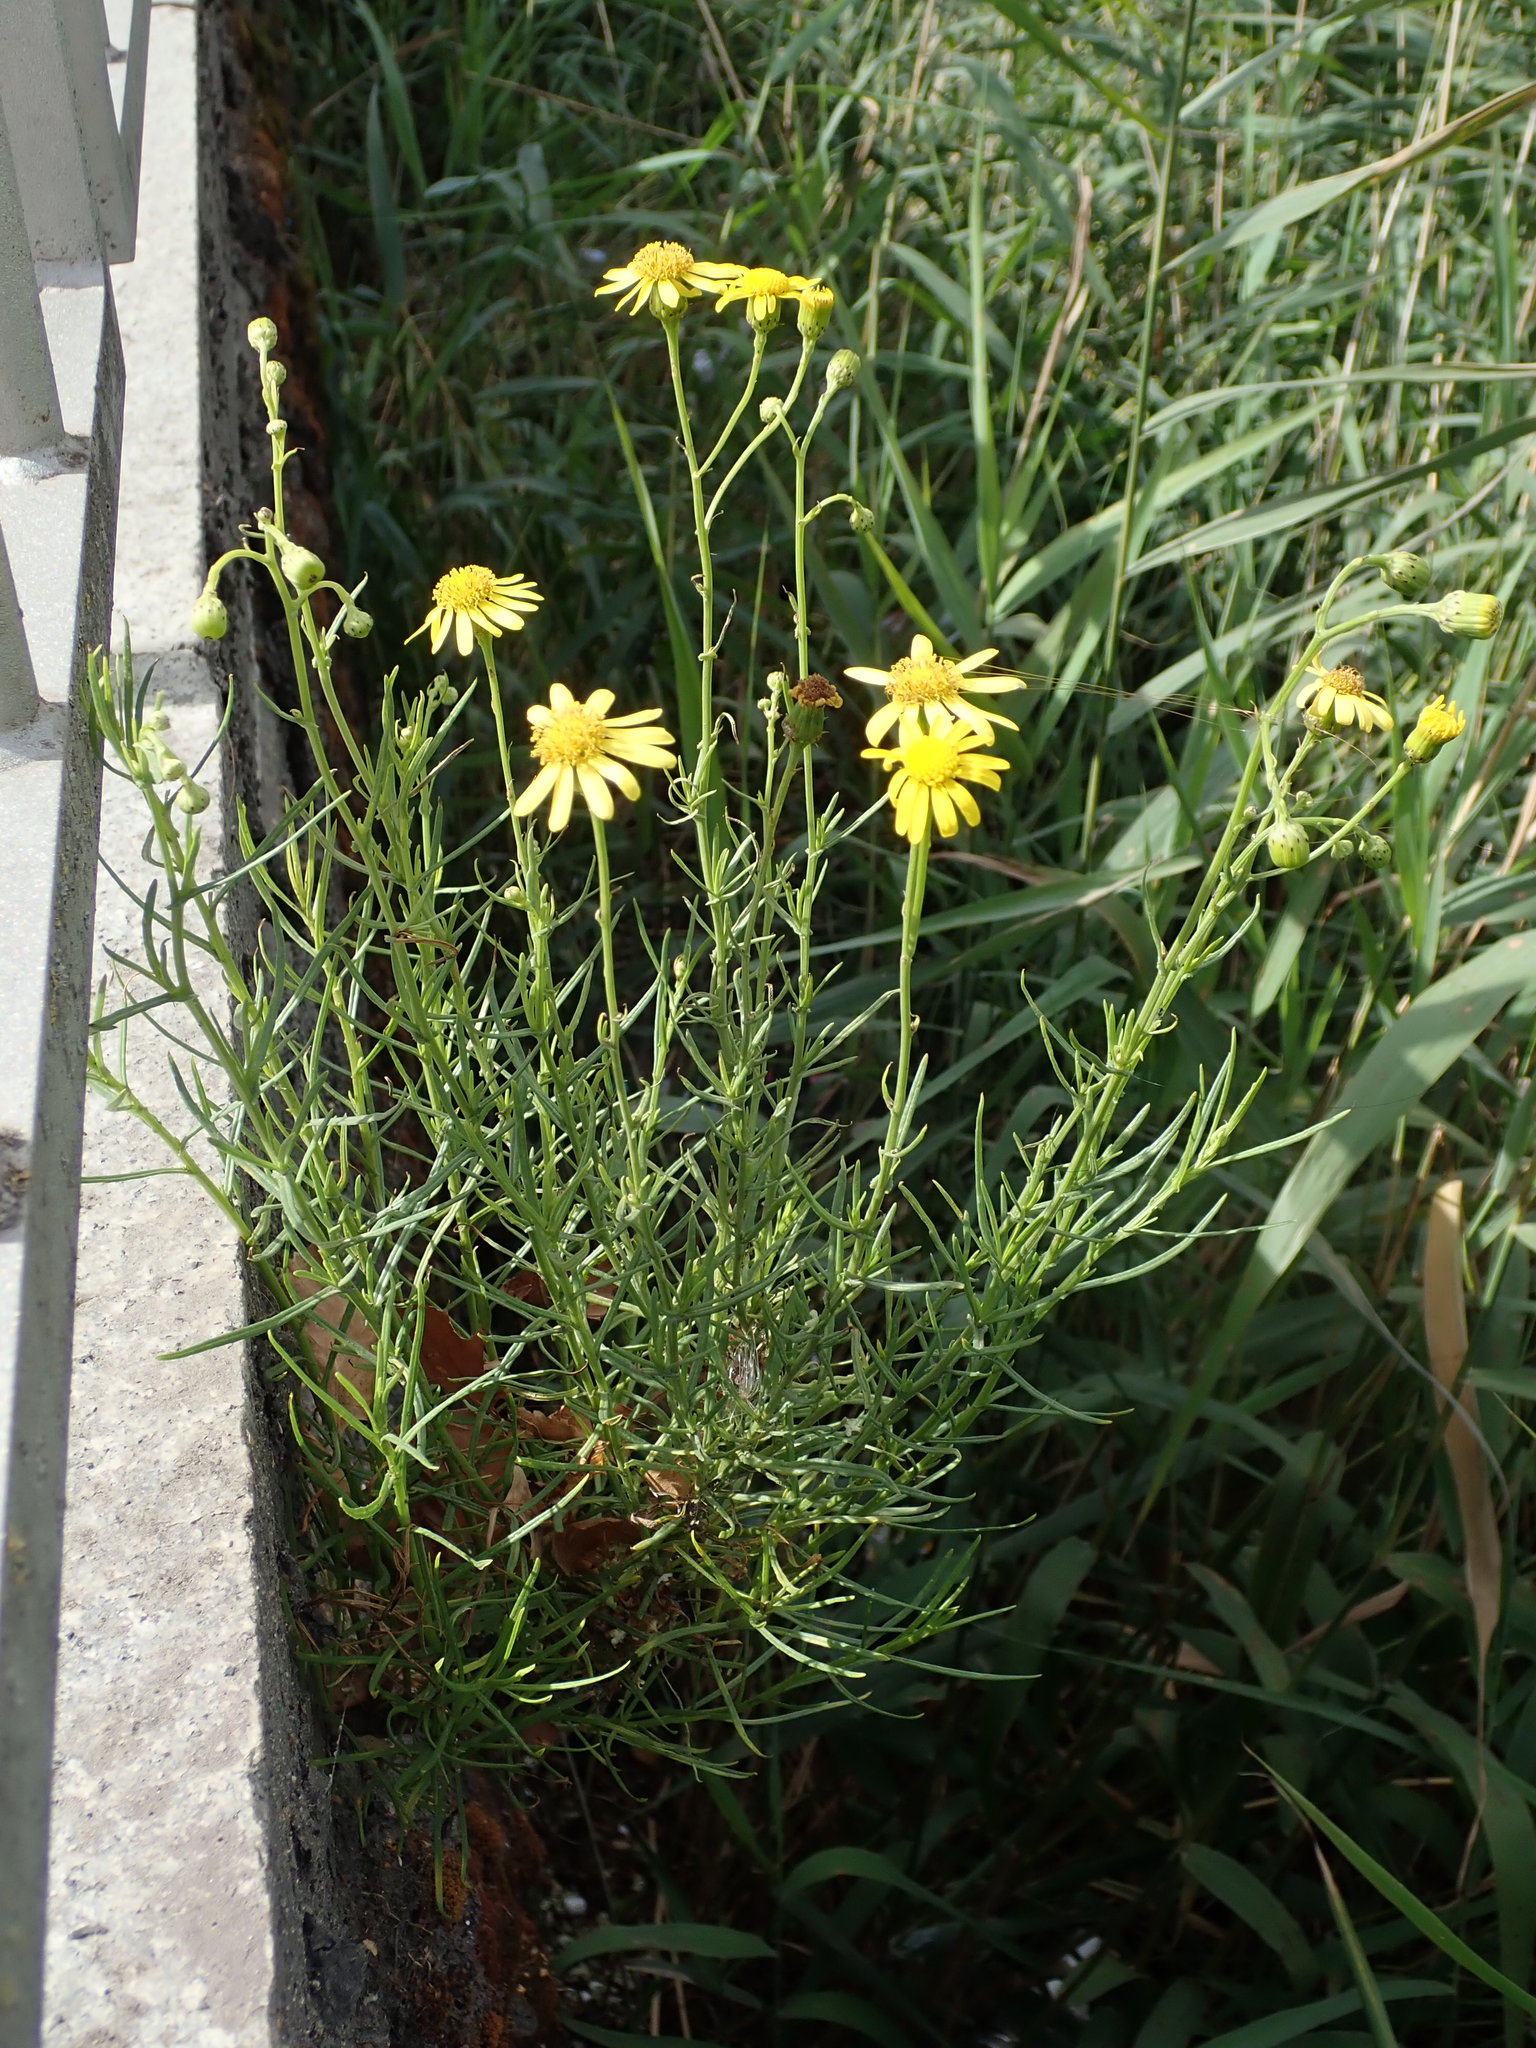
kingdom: Plantae
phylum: Tracheophyta
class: Magnoliopsida
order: Asterales
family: Asteraceae
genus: Senecio
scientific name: Senecio inaequidens
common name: Narrow-leaved ragwort
